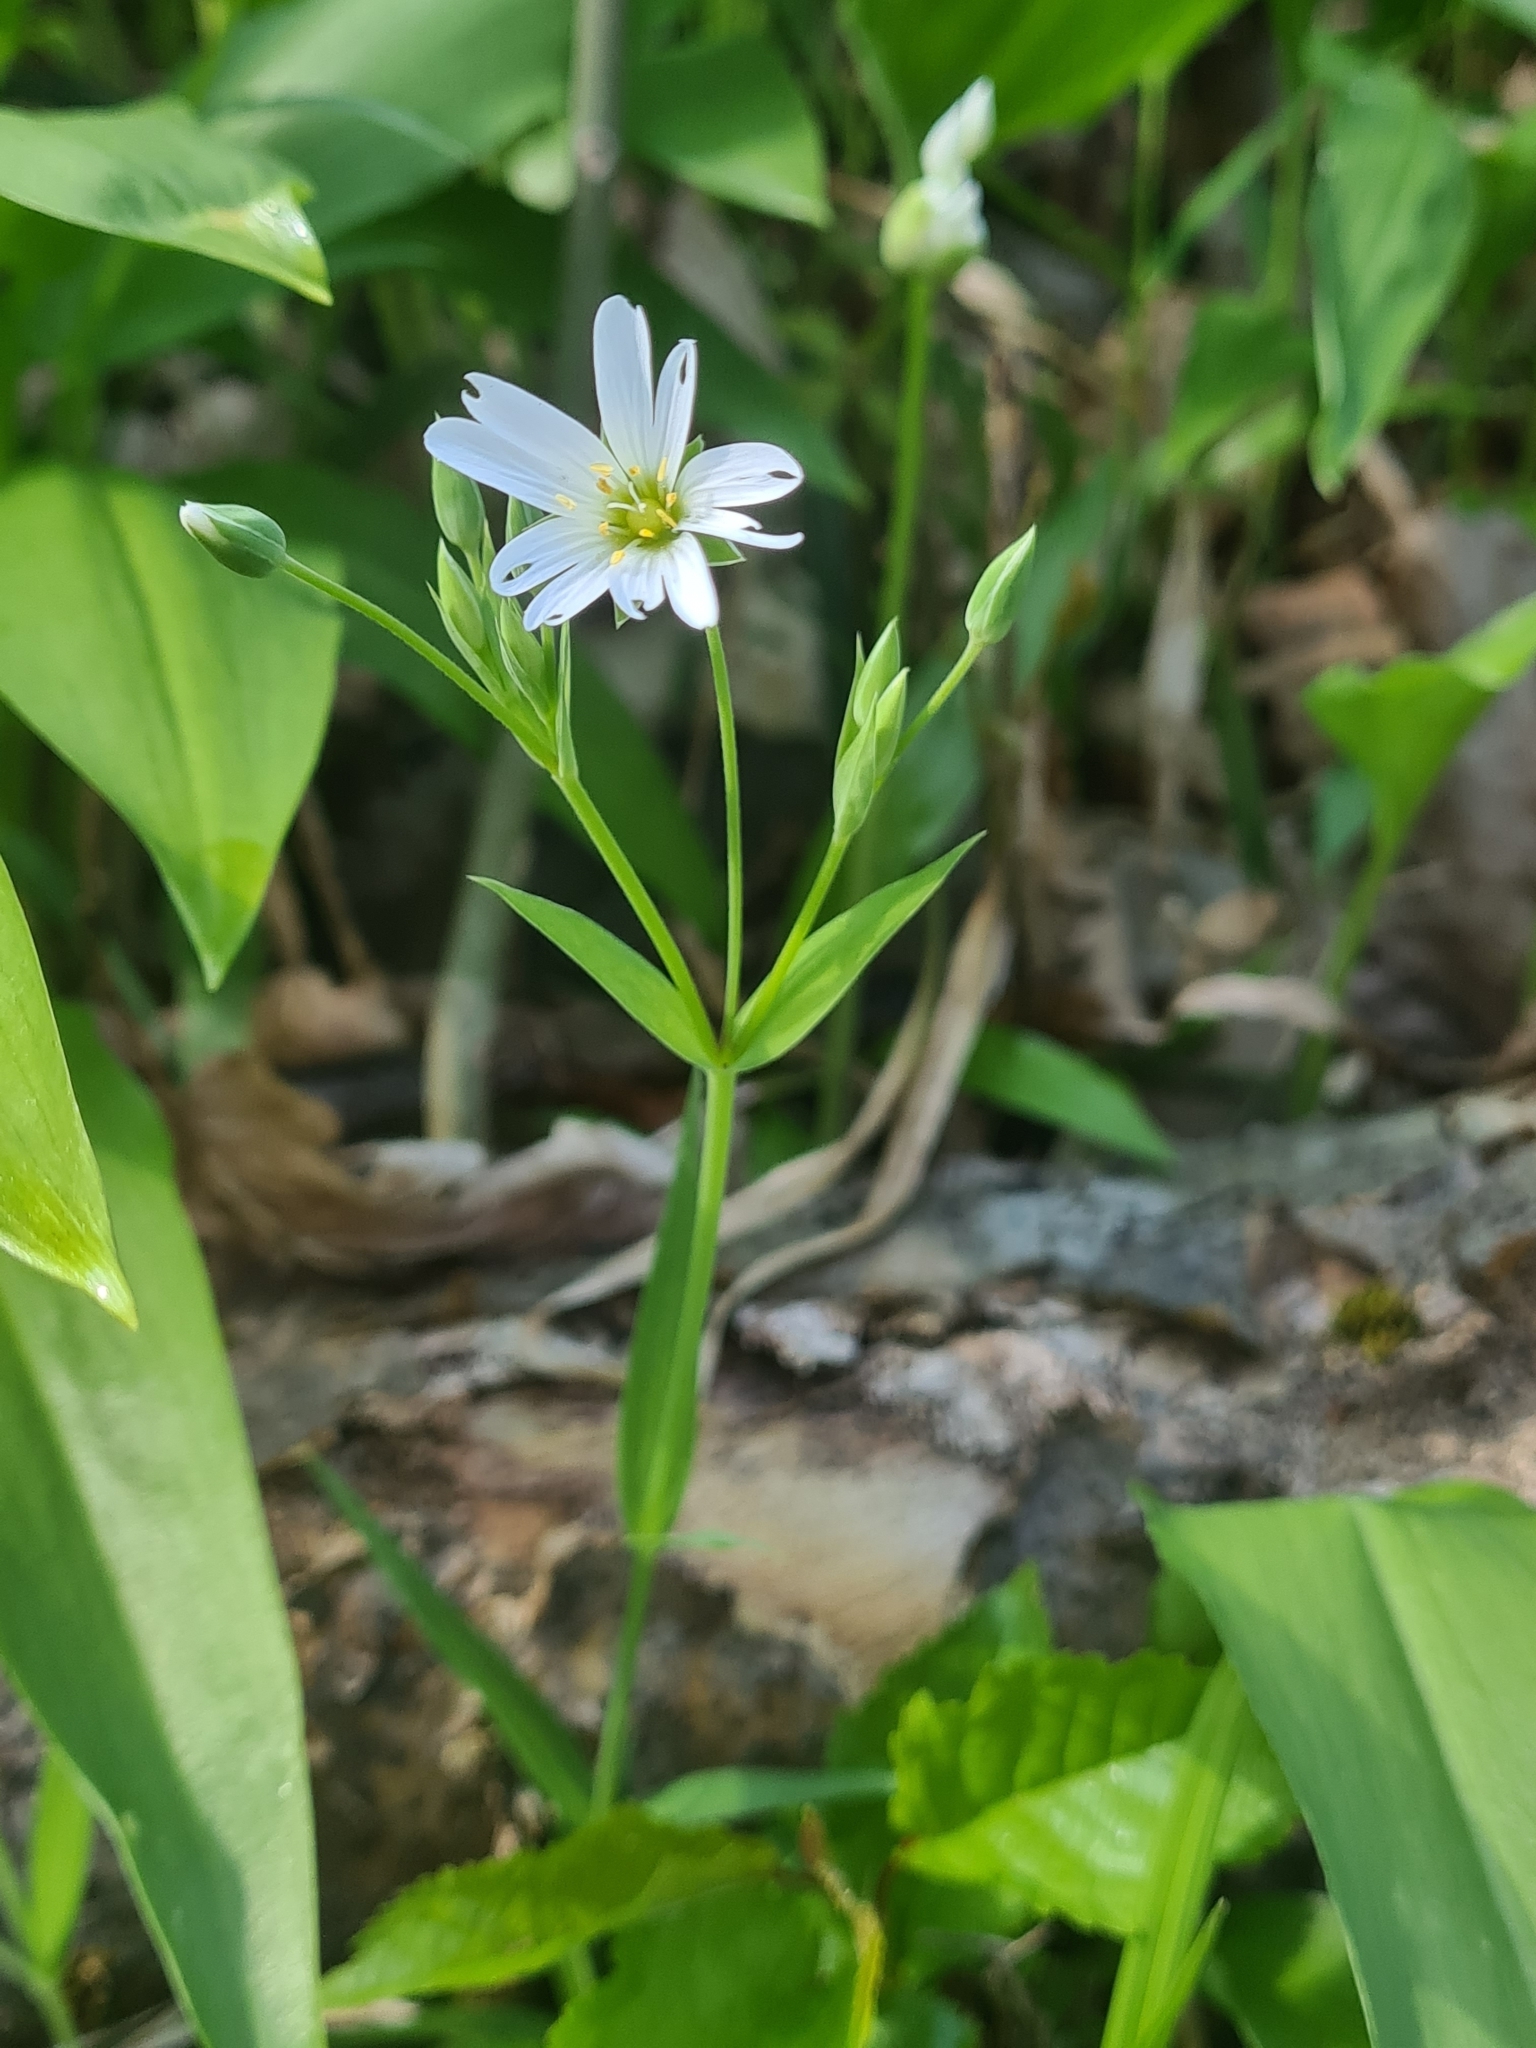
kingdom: Plantae
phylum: Tracheophyta
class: Magnoliopsida
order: Caryophyllales
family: Caryophyllaceae
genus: Rabelera
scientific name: Rabelera holostea
